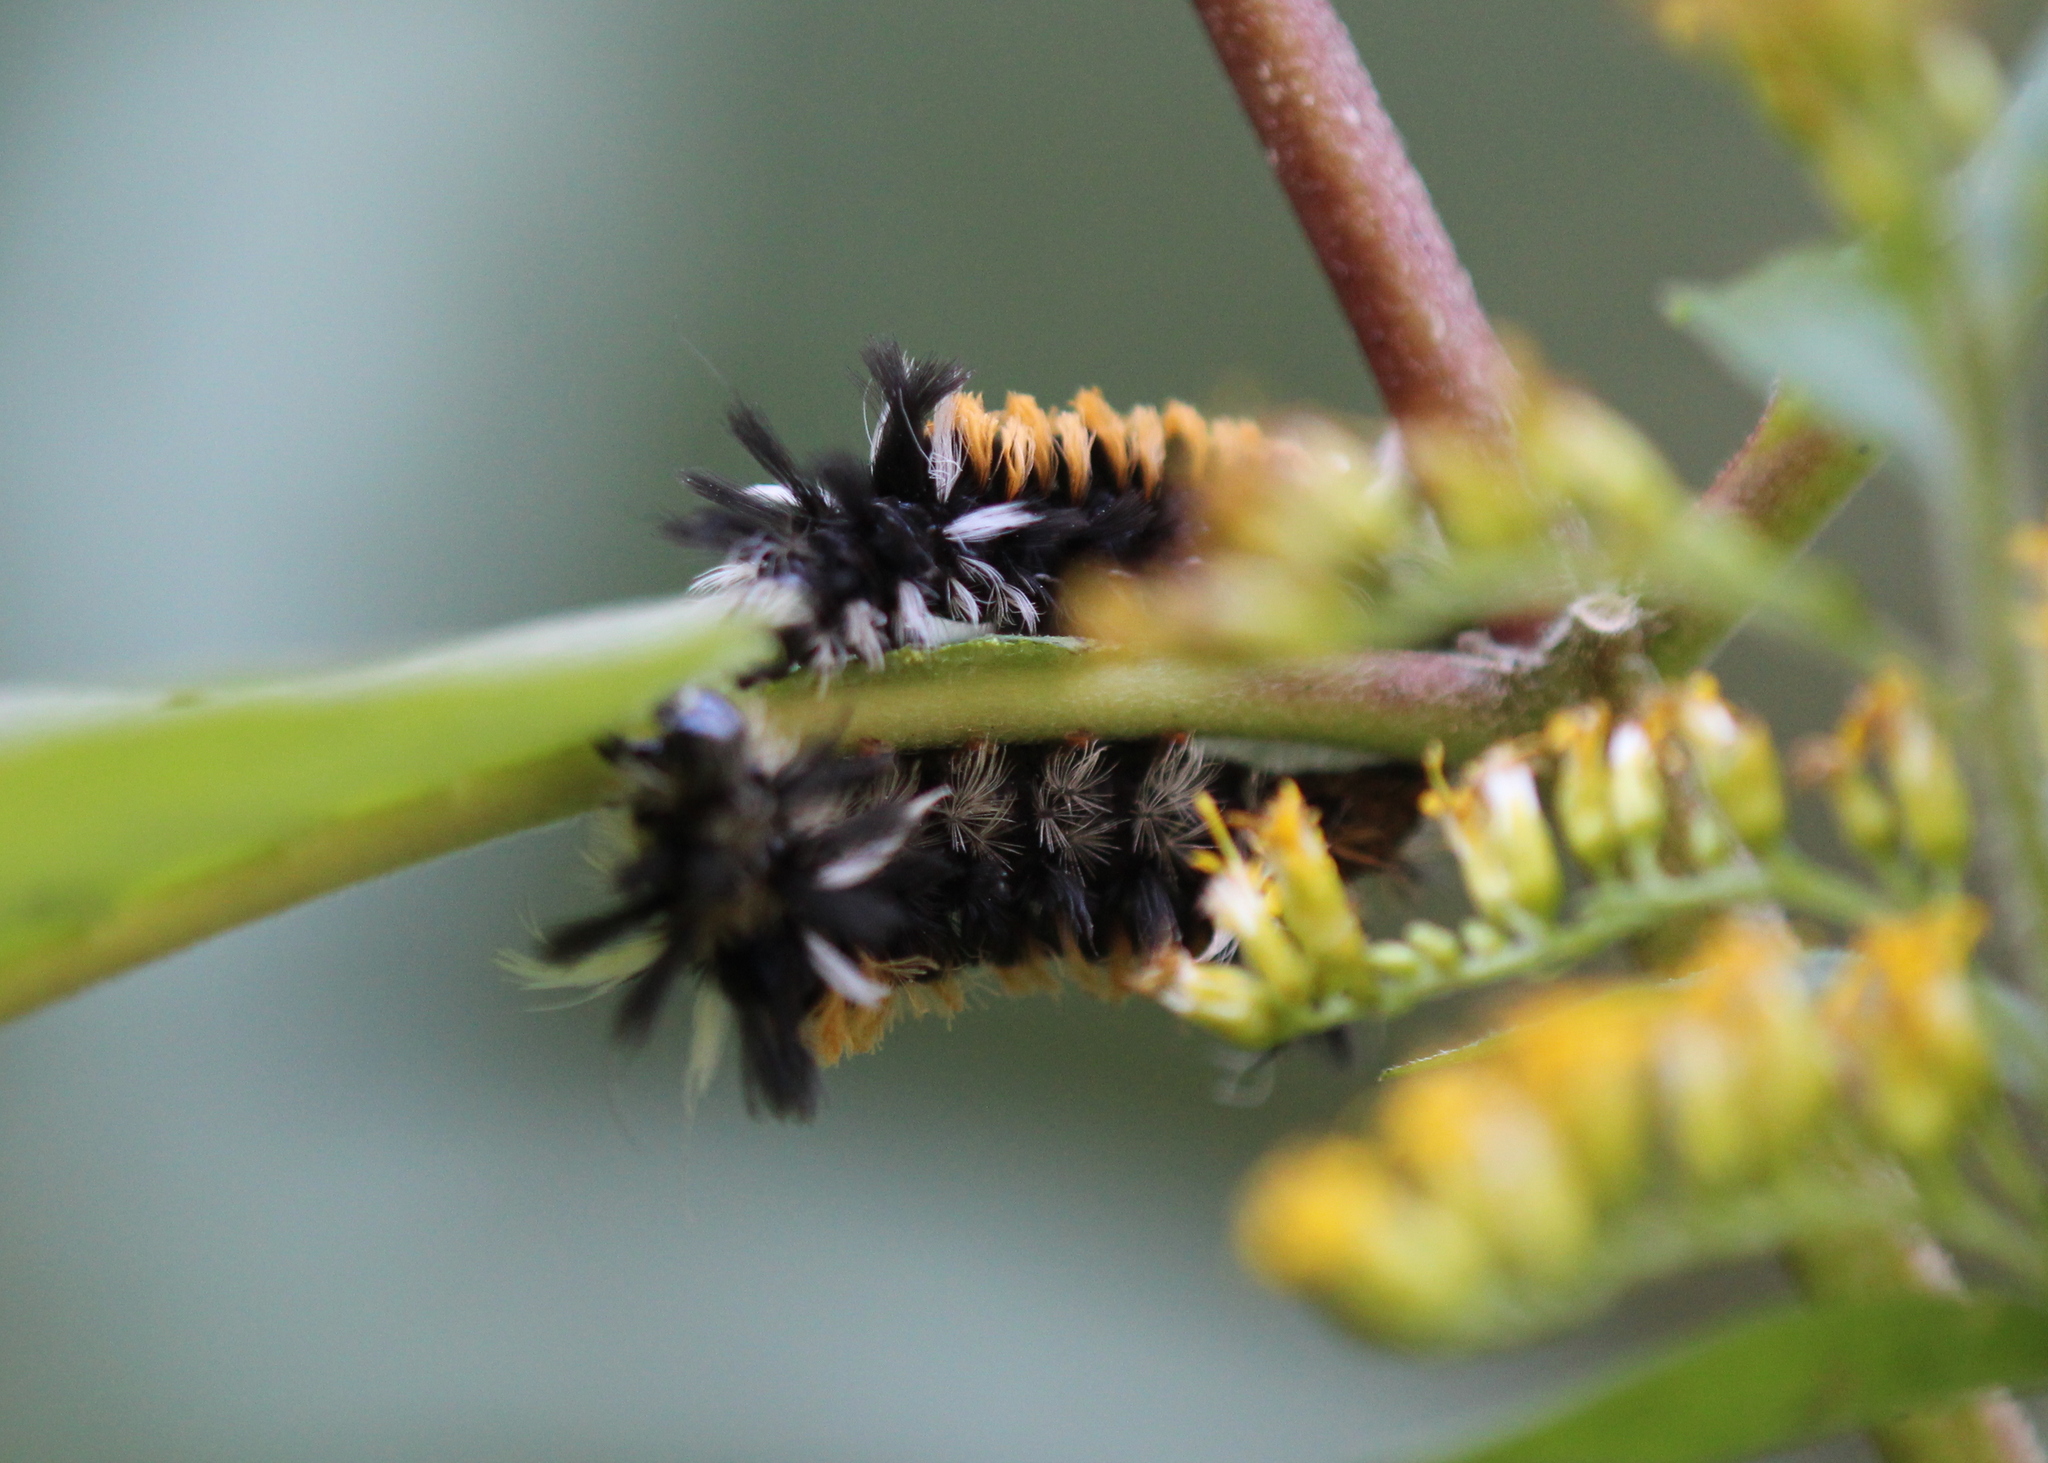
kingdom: Animalia
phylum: Arthropoda
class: Insecta
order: Lepidoptera
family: Erebidae
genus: Euchaetes
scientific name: Euchaetes egle
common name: Milkweed tussock moth
